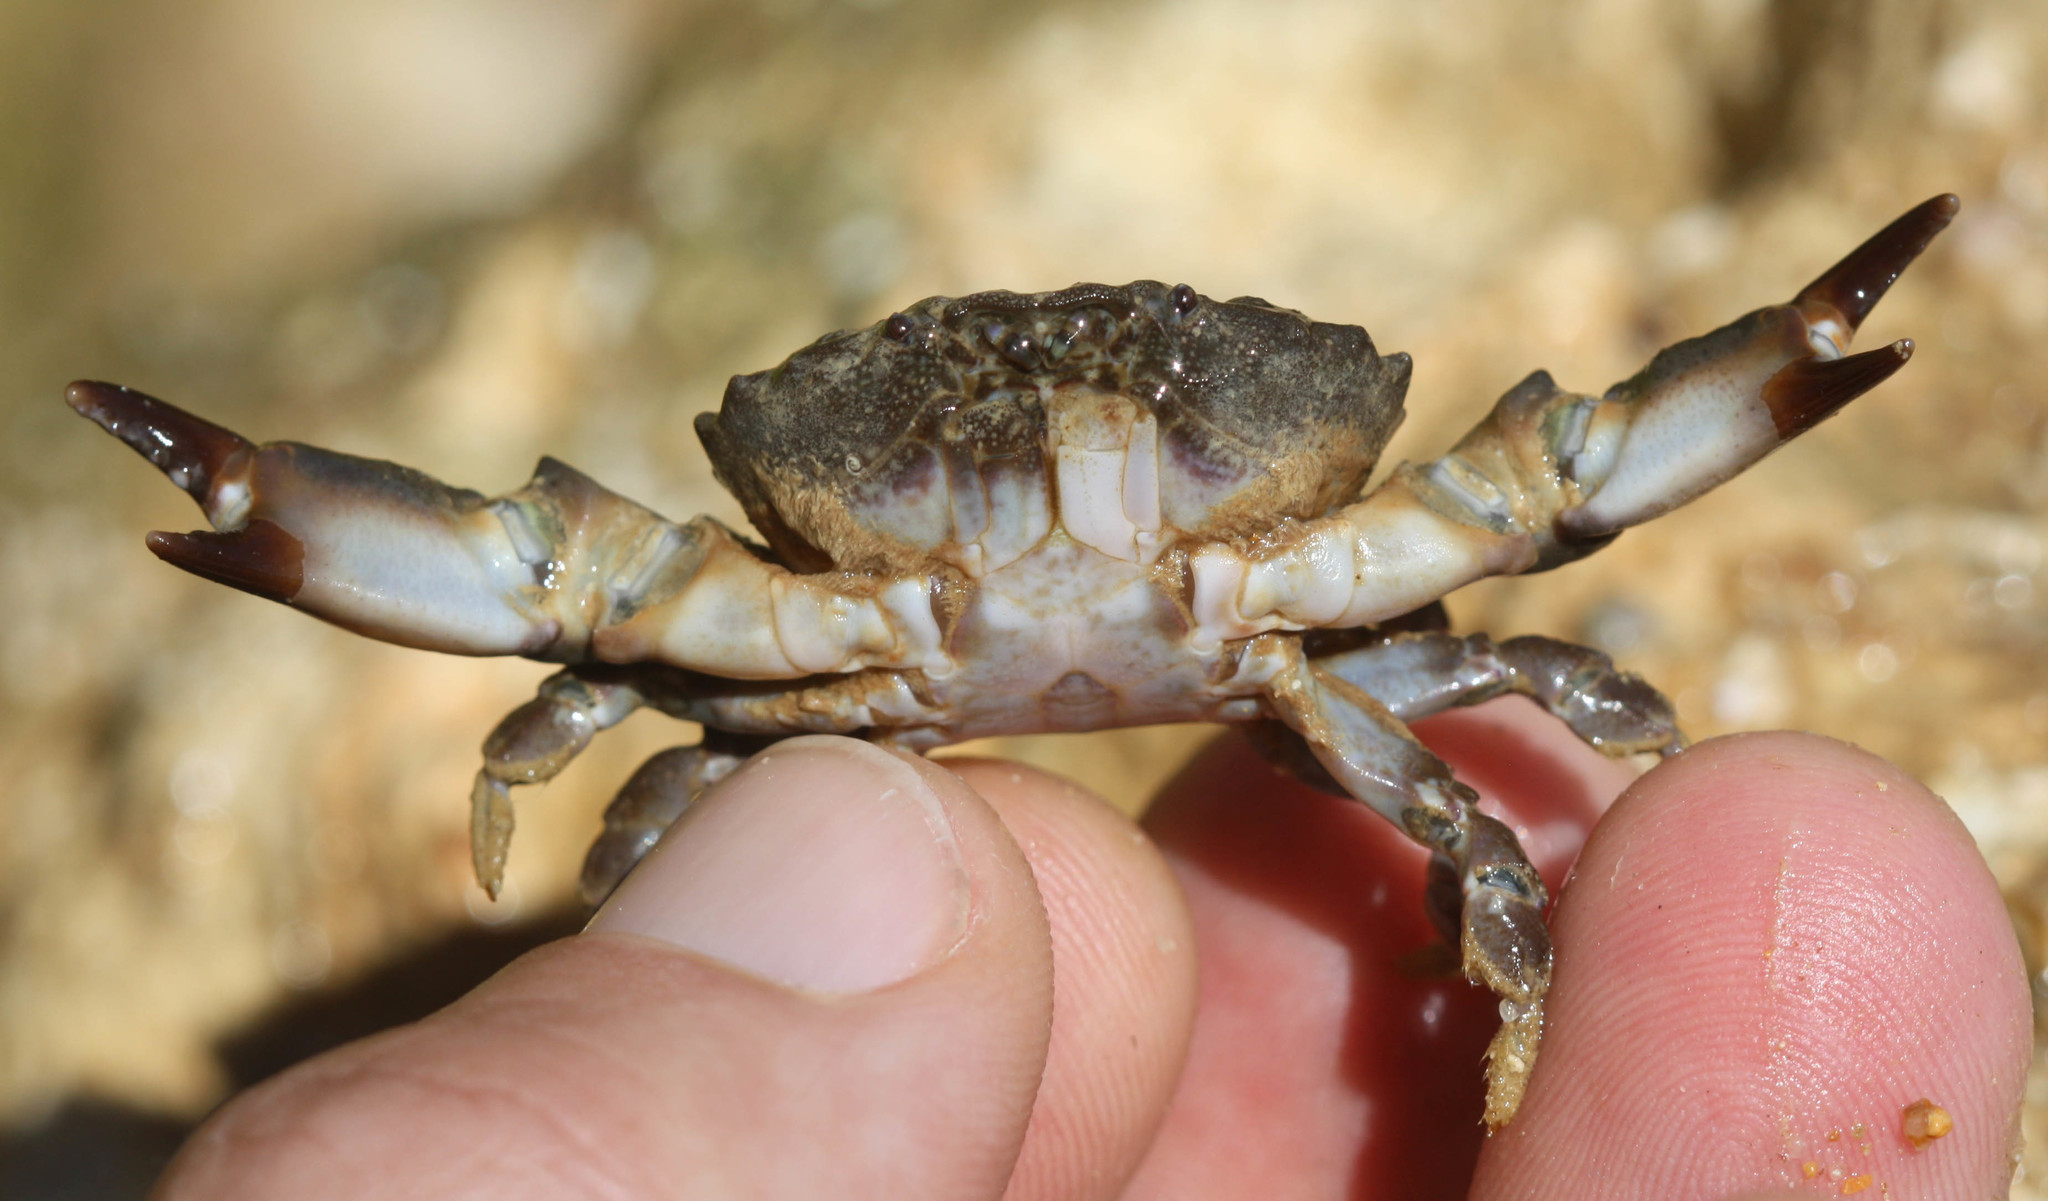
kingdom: Animalia
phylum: Arthropoda
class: Malacostraca
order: Decapoda
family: Xanthidae
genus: Xantho
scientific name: Xantho hydrophilus
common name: Montagu's crab
